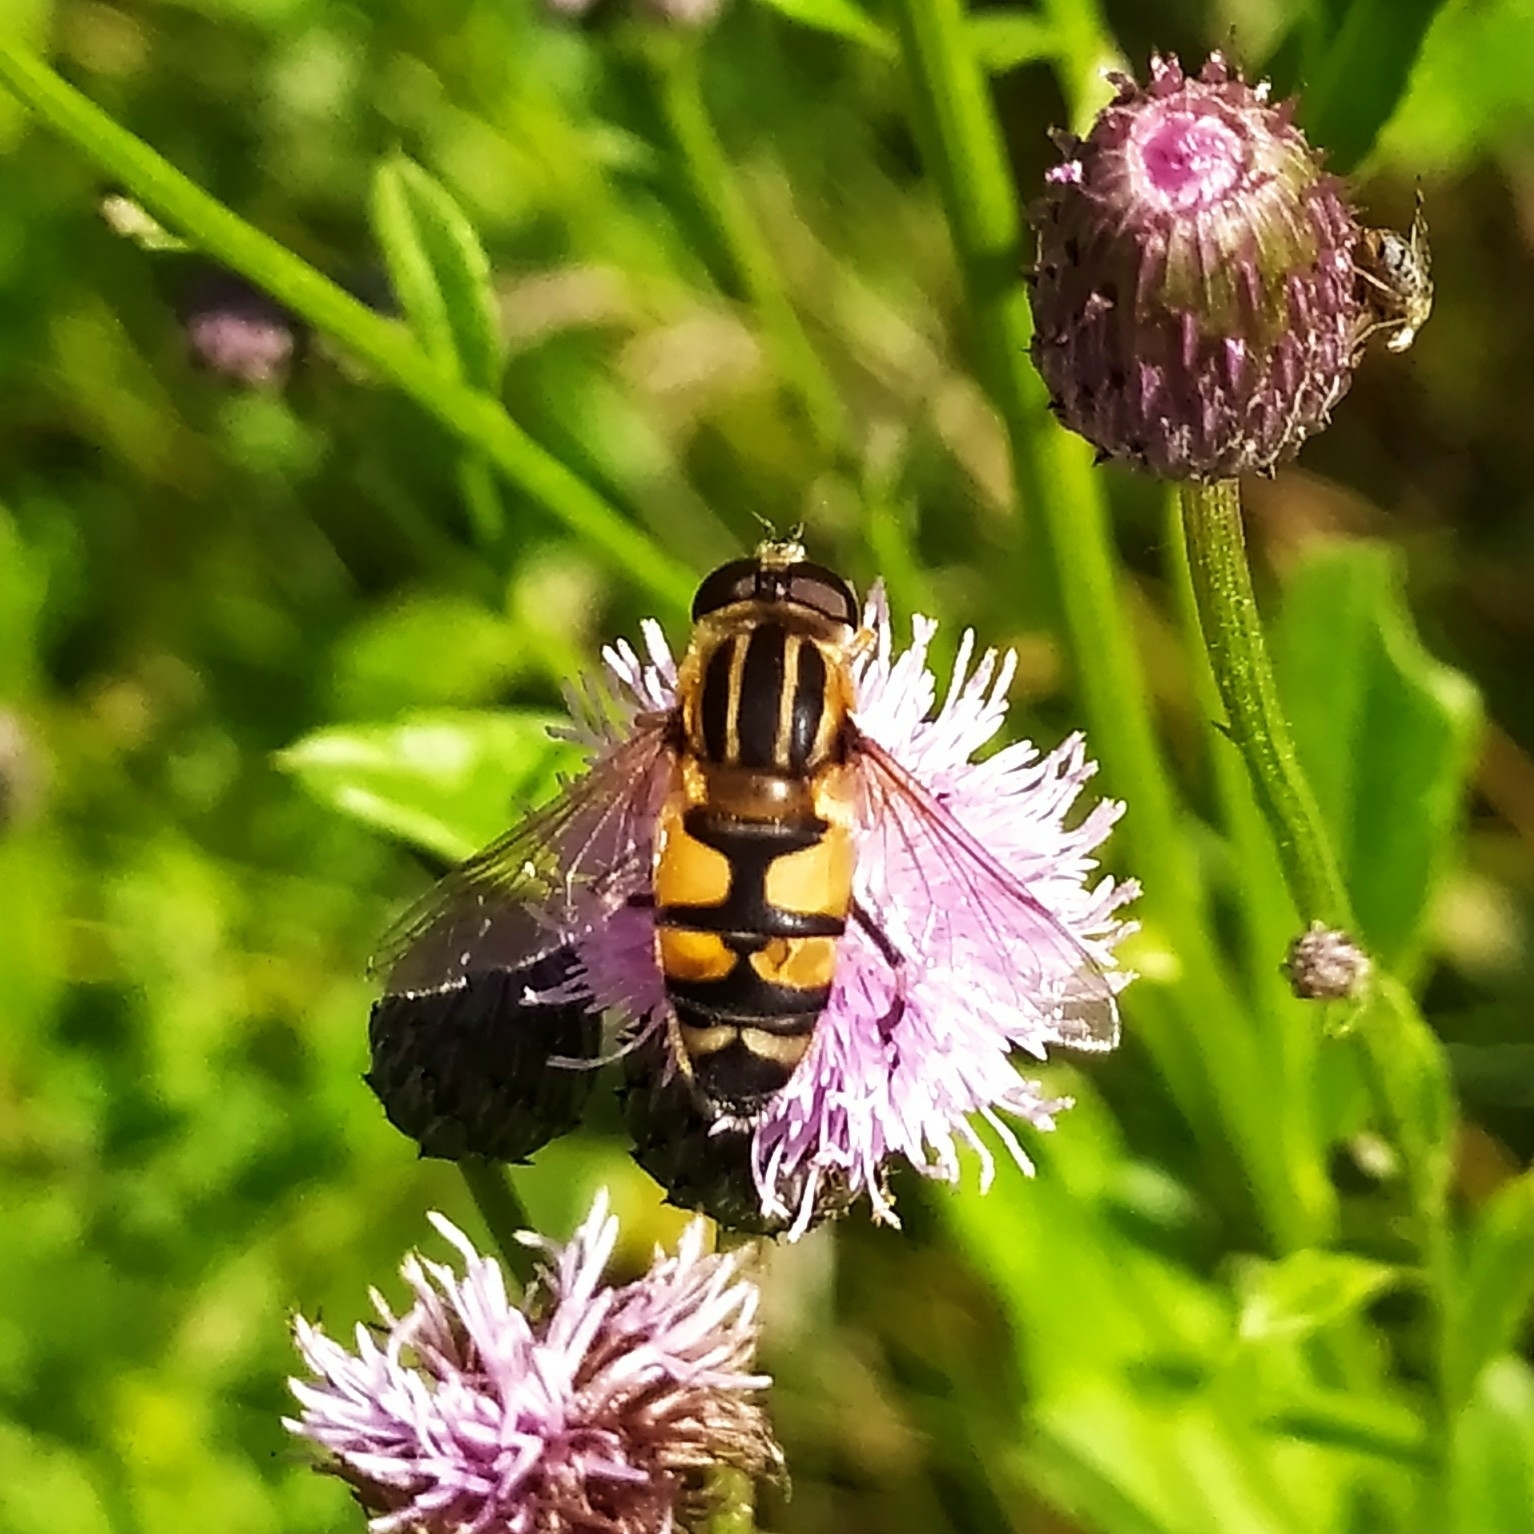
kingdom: Animalia
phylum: Arthropoda
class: Insecta
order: Diptera
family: Syrphidae
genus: Helophilus
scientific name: Helophilus affinis
